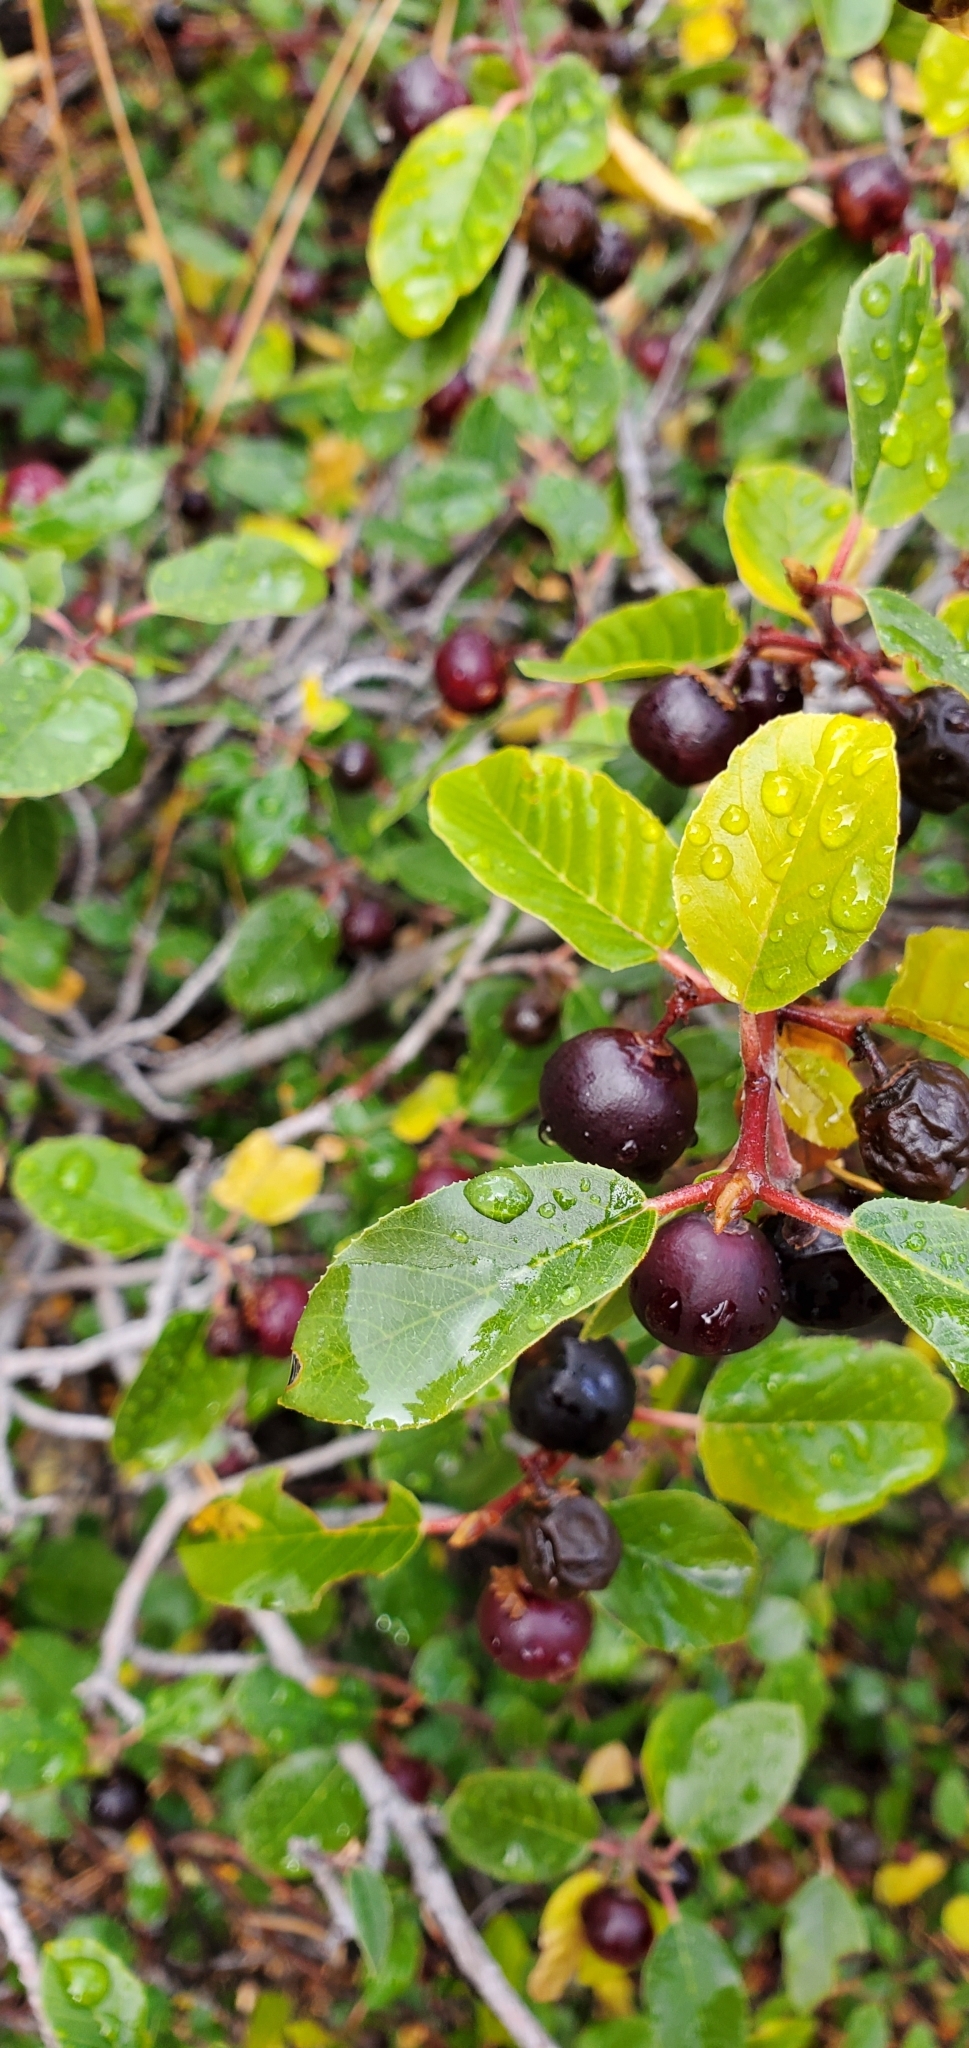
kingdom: Plantae
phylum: Tracheophyta
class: Magnoliopsida
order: Rosales
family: Rhamnaceae
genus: Frangula
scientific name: Frangula californica
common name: California buckthorn
